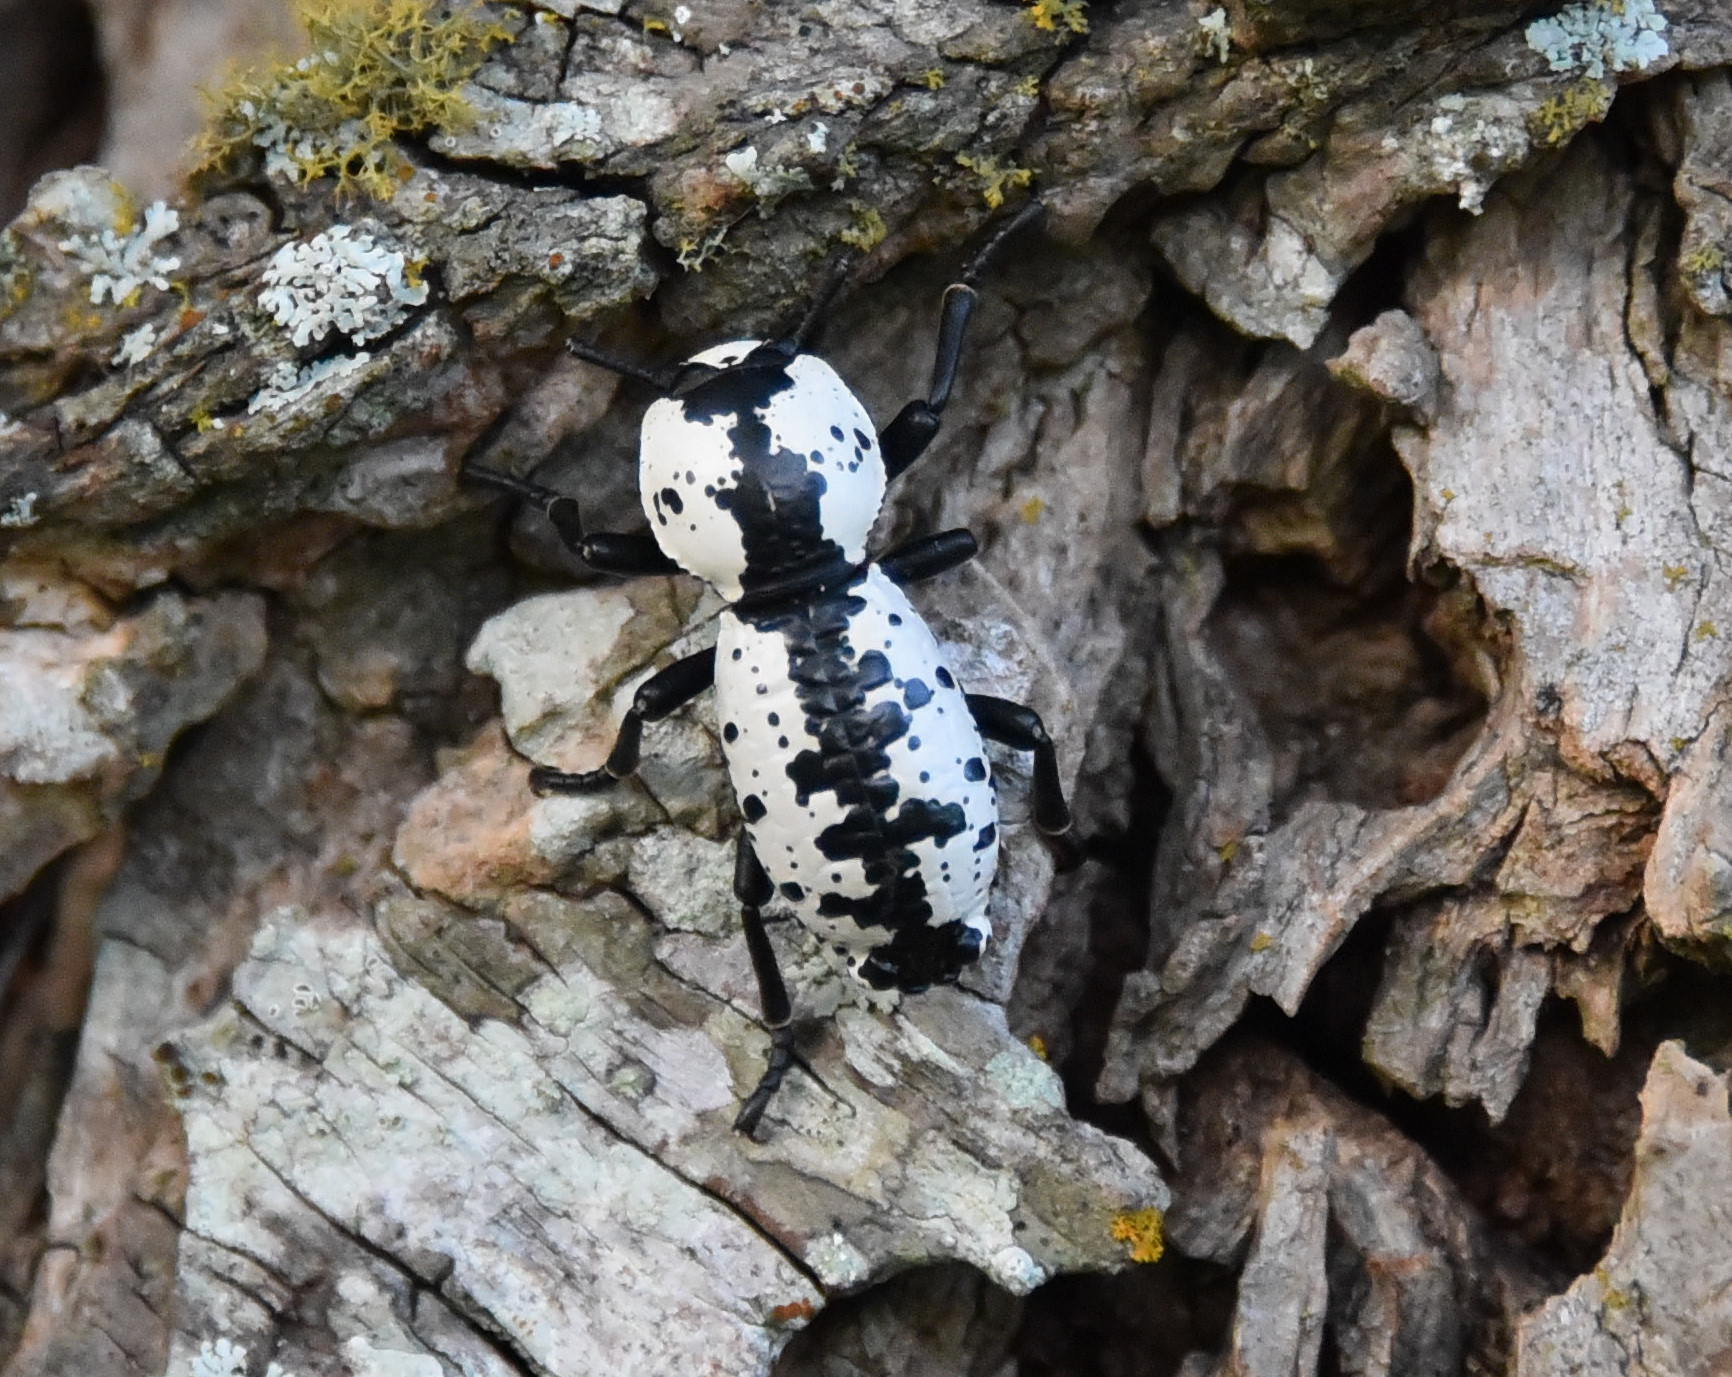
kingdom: Animalia
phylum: Arthropoda
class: Insecta
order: Coleoptera
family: Zopheridae
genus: Zopherus
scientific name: Zopherus nodulosus
